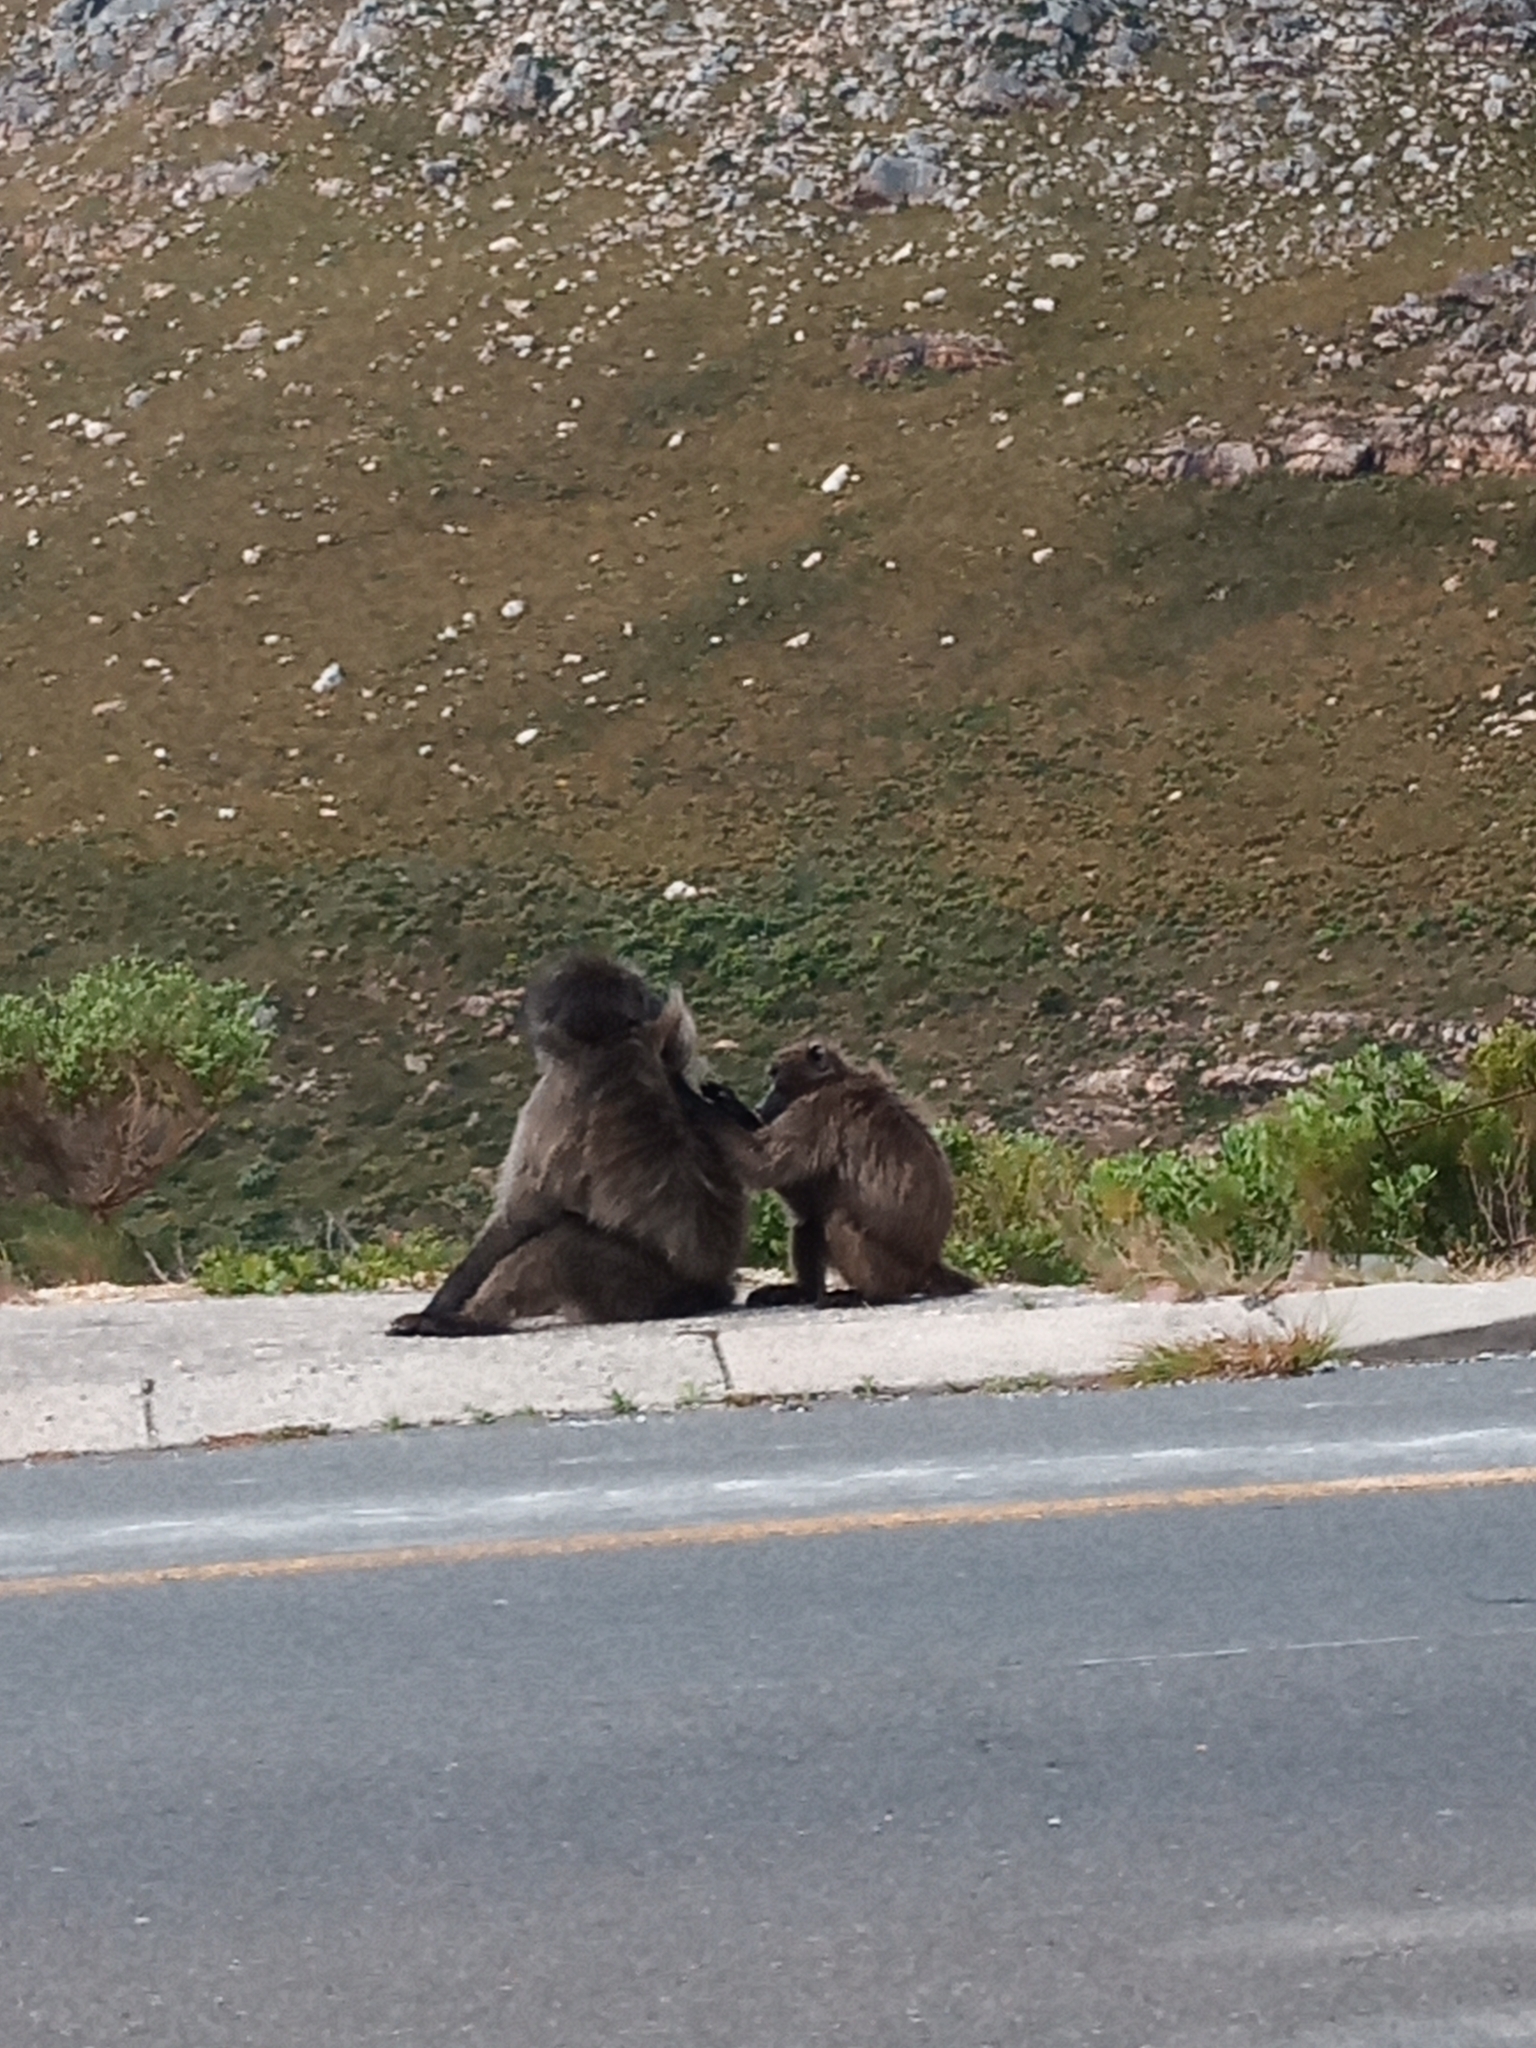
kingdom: Animalia
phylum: Chordata
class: Mammalia
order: Primates
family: Cercopithecidae
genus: Papio
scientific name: Papio ursinus
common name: Chacma baboon
